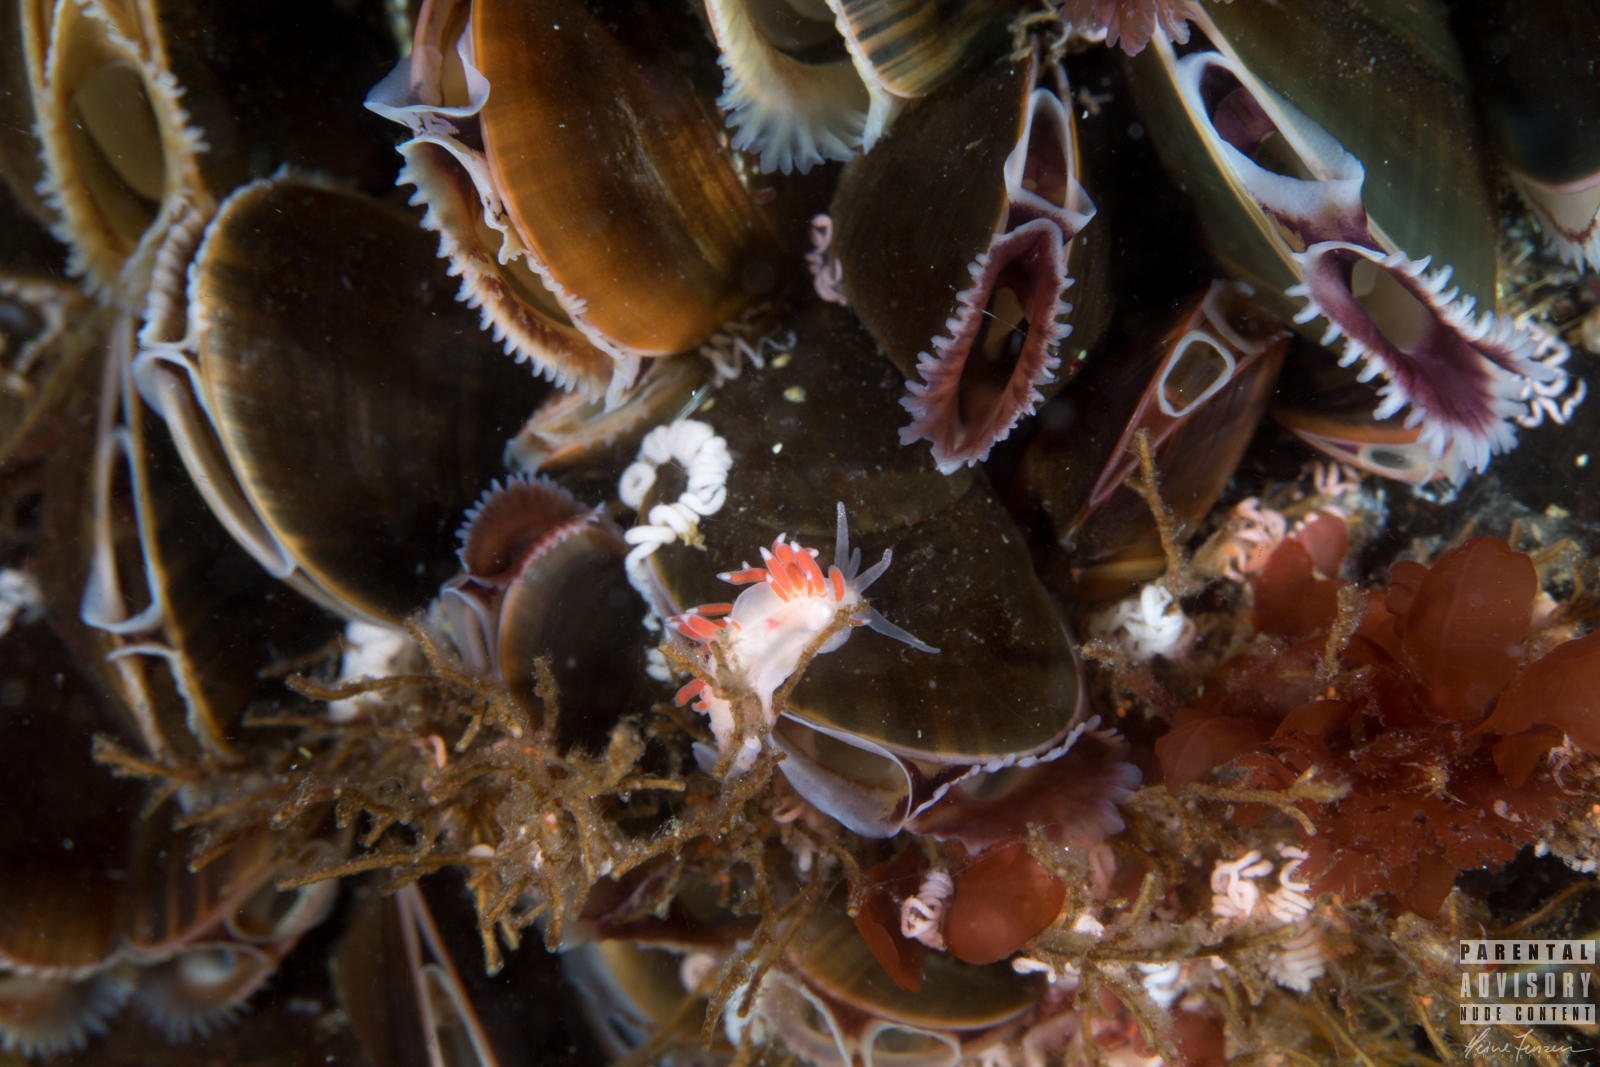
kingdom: Animalia
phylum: Mollusca
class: Gastropoda
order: Nudibranchia
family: Coryphellidae
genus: Coryphella
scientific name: Coryphella gracilis
